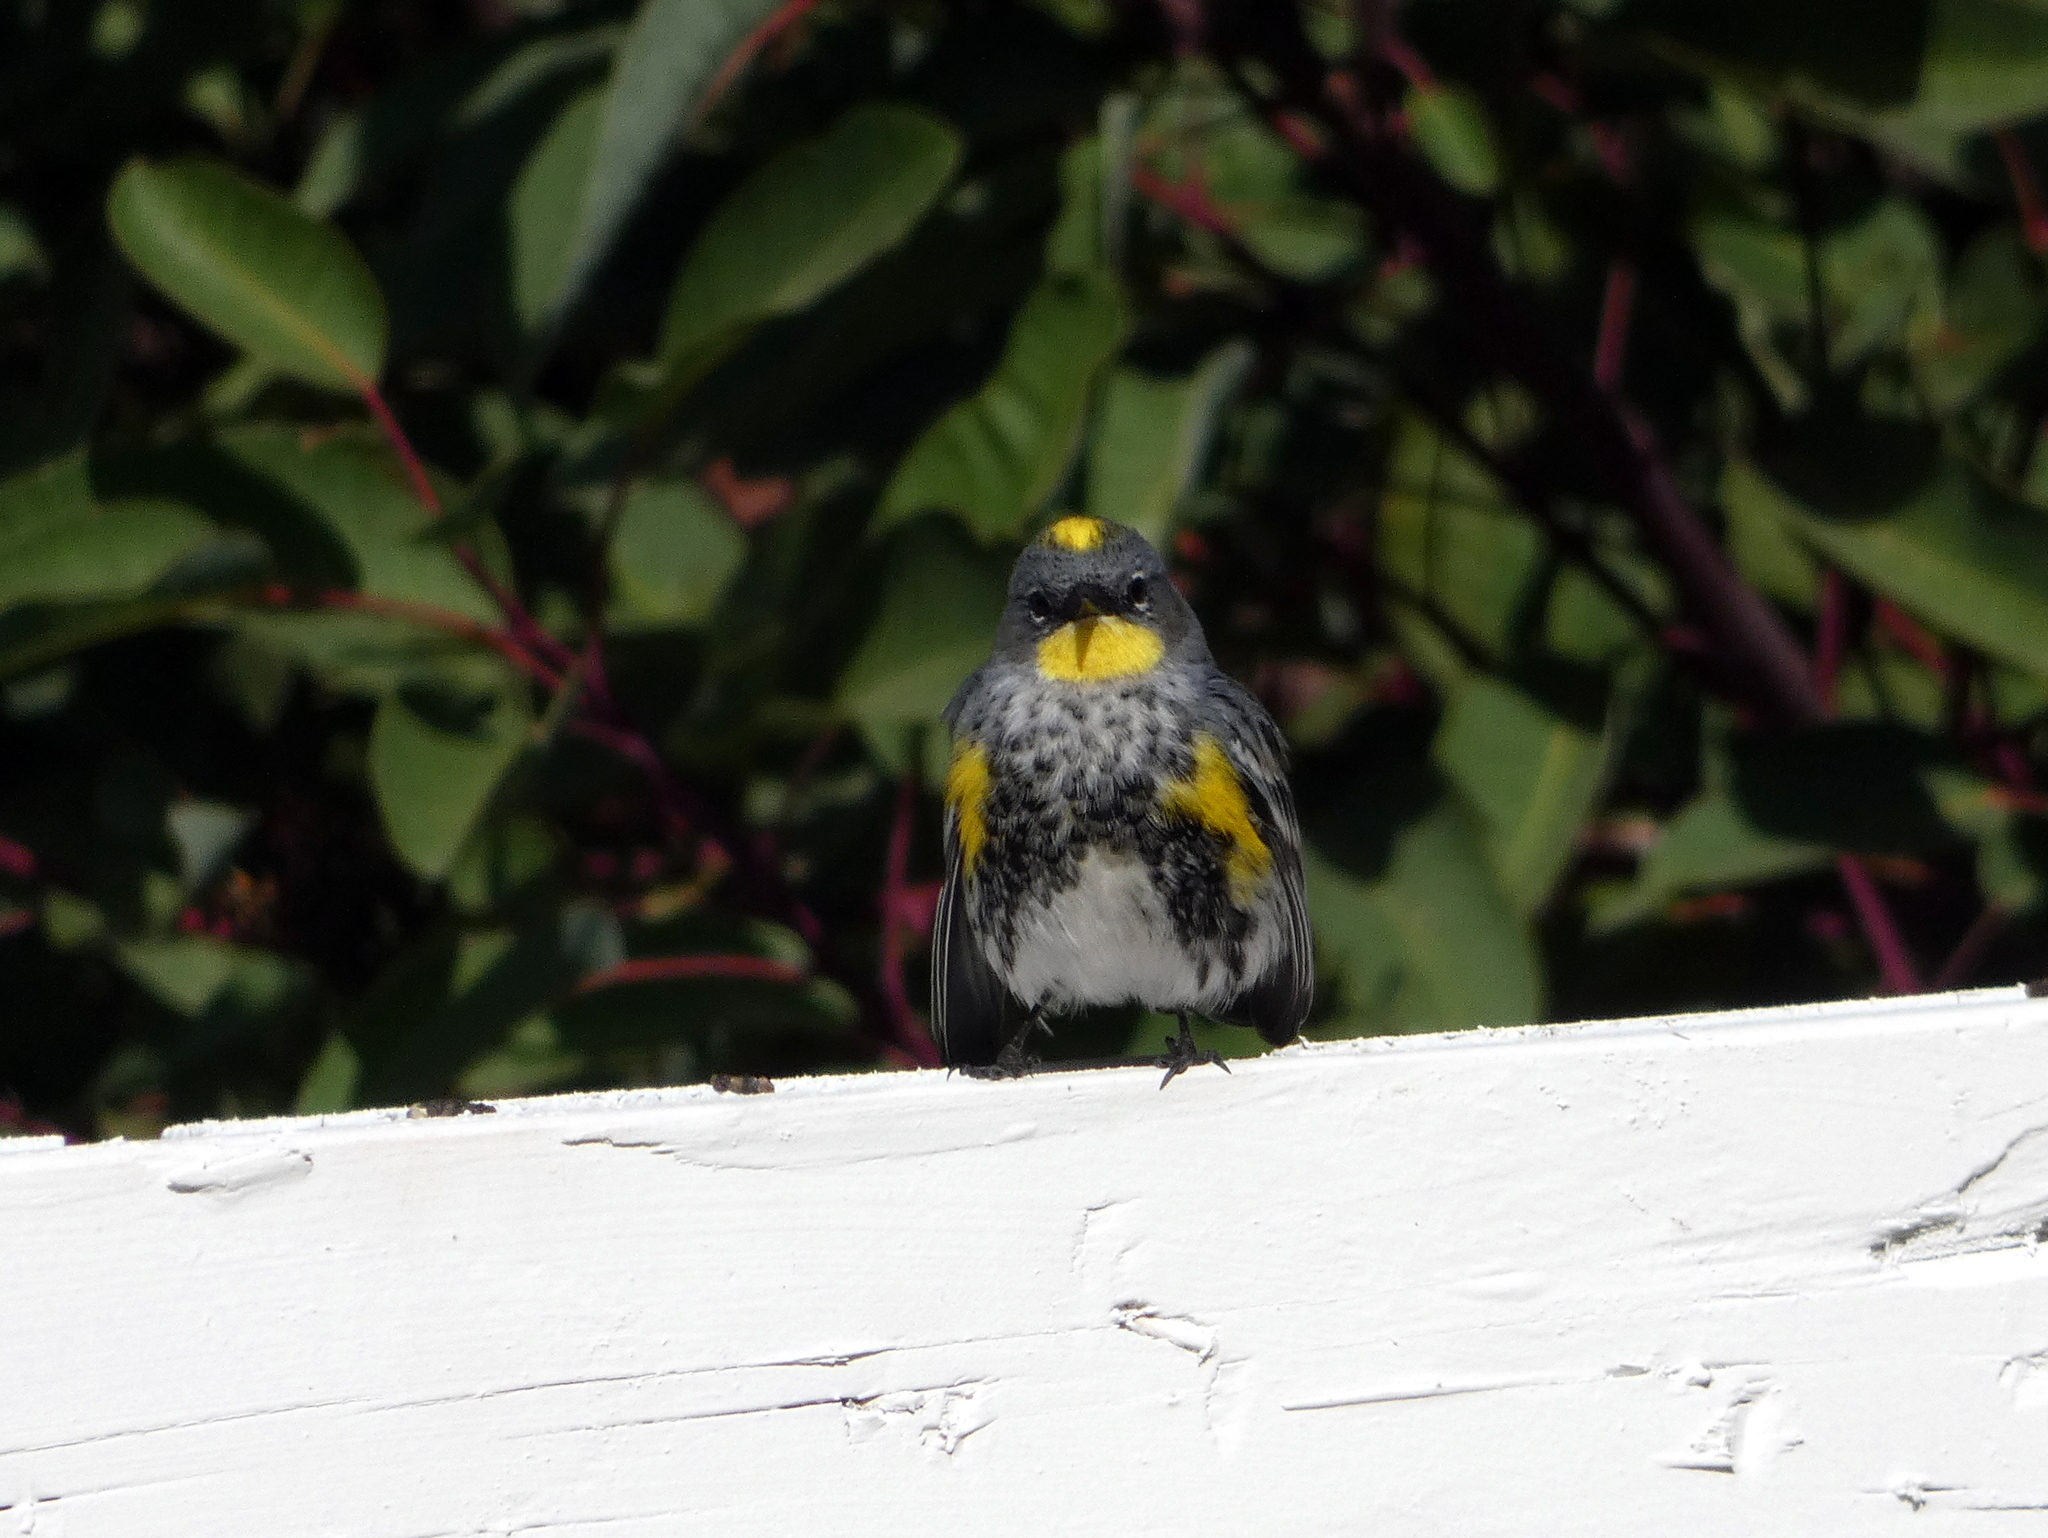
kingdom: Animalia
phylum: Chordata
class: Aves
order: Passeriformes
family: Parulidae
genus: Setophaga
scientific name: Setophaga coronata
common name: Myrtle warbler
